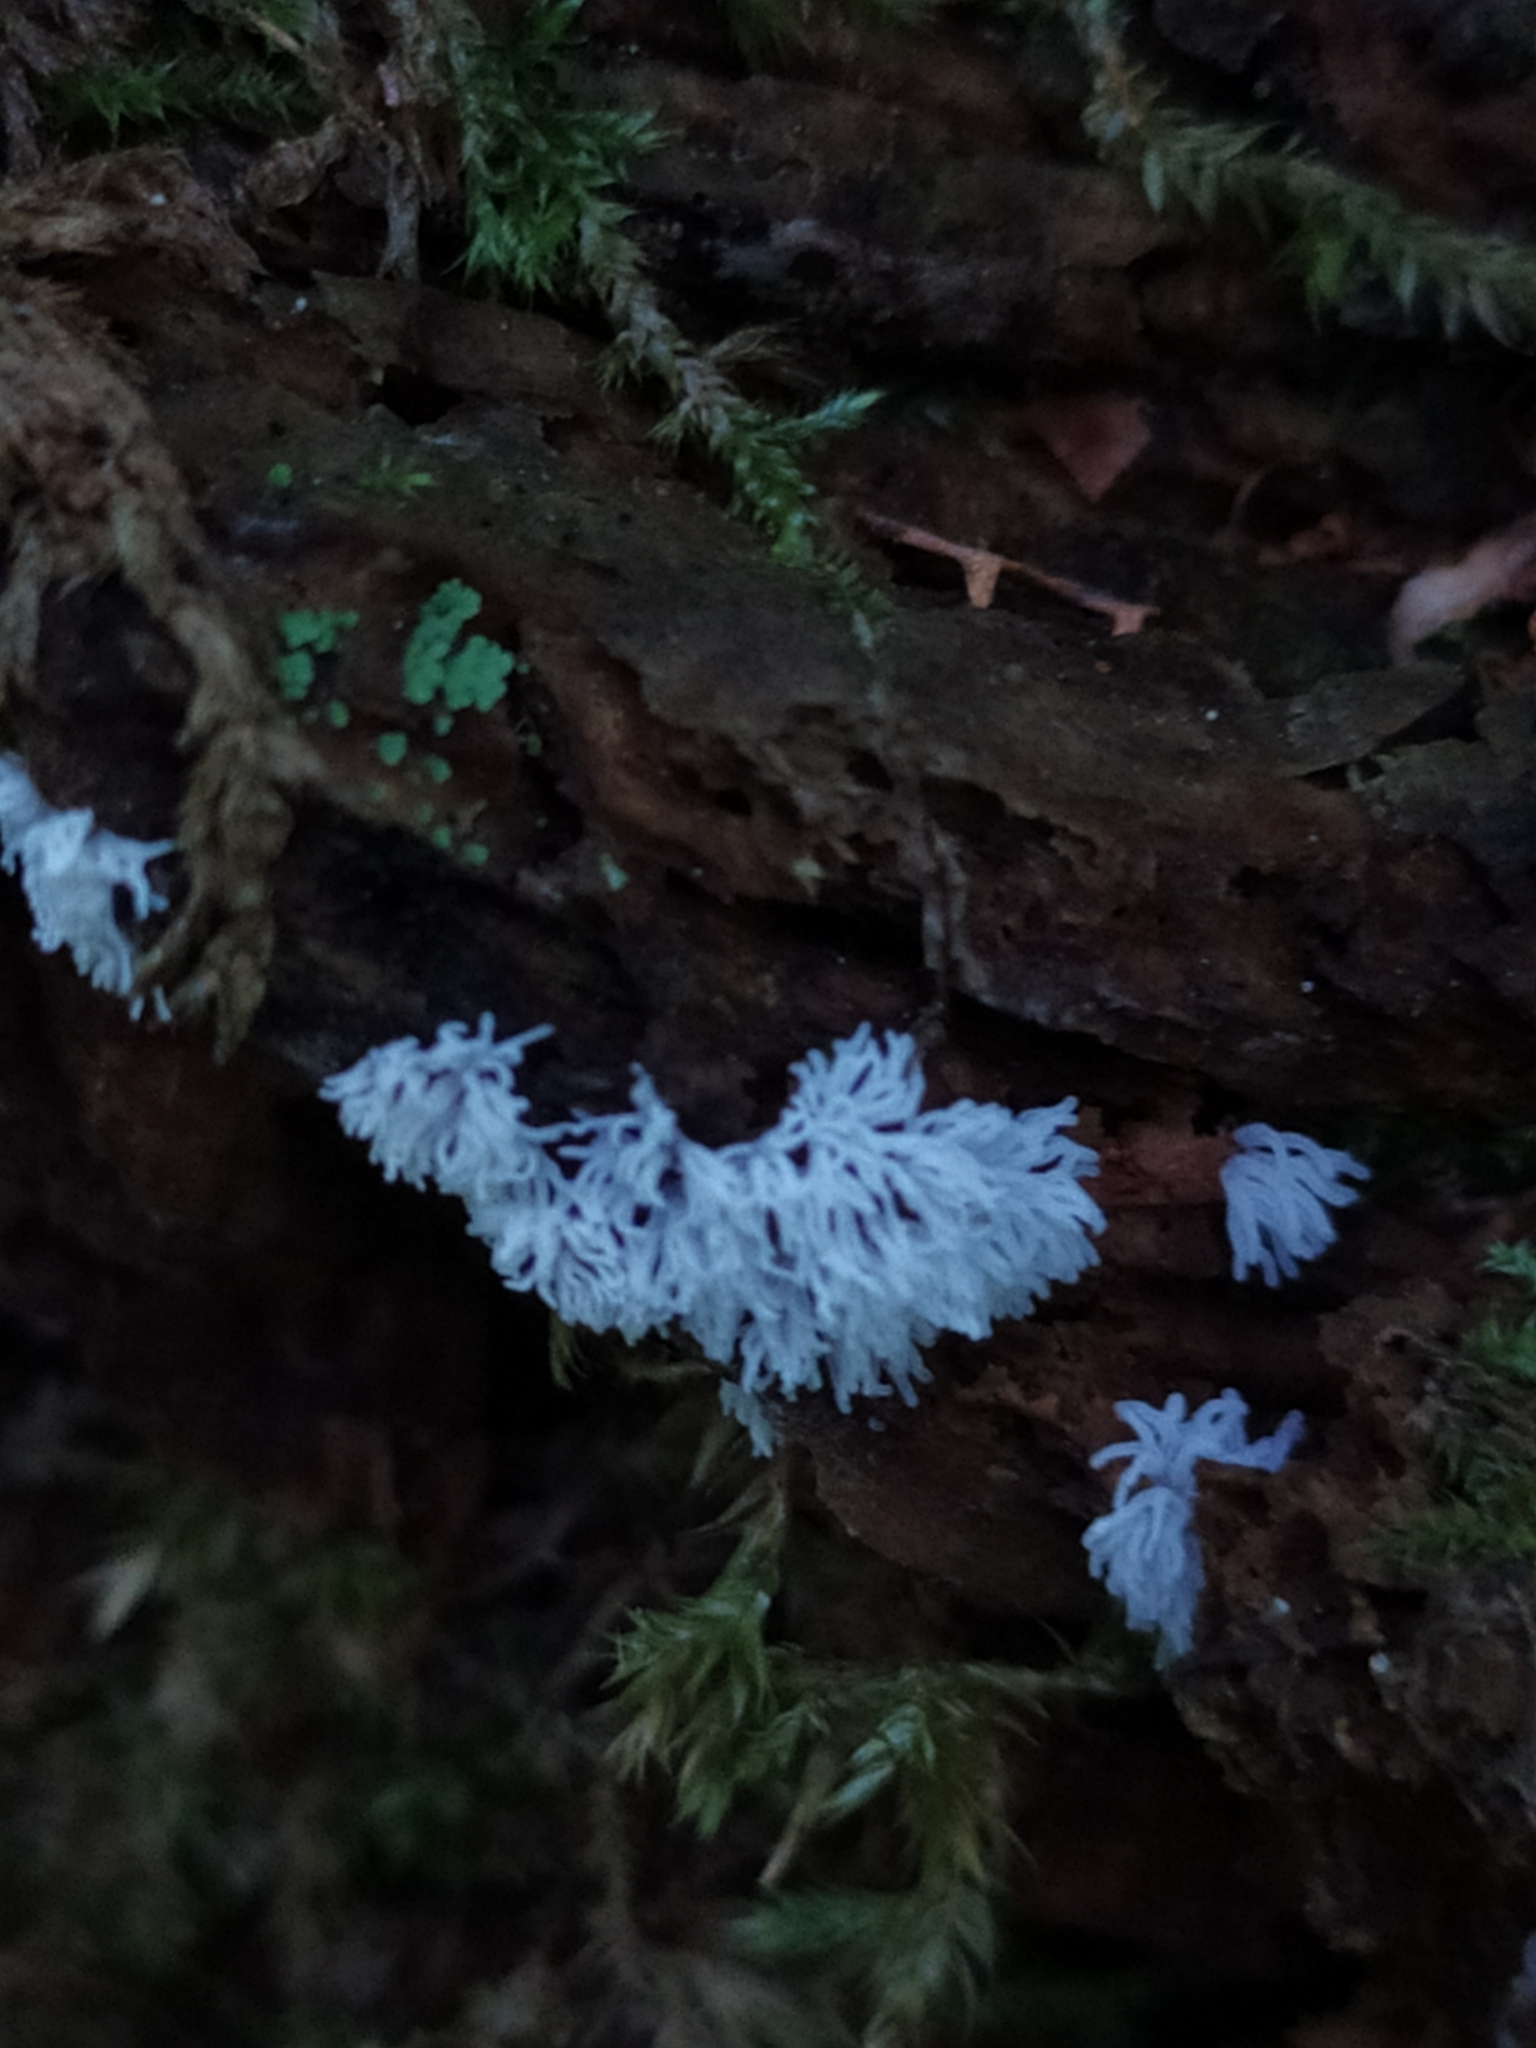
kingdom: Protozoa
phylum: Mycetozoa
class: Protosteliomycetes
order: Ceratiomyxales
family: Ceratiomyxaceae
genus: Ceratiomyxa
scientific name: Ceratiomyxa fruticulosa
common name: Honeycomb coral slime mold
